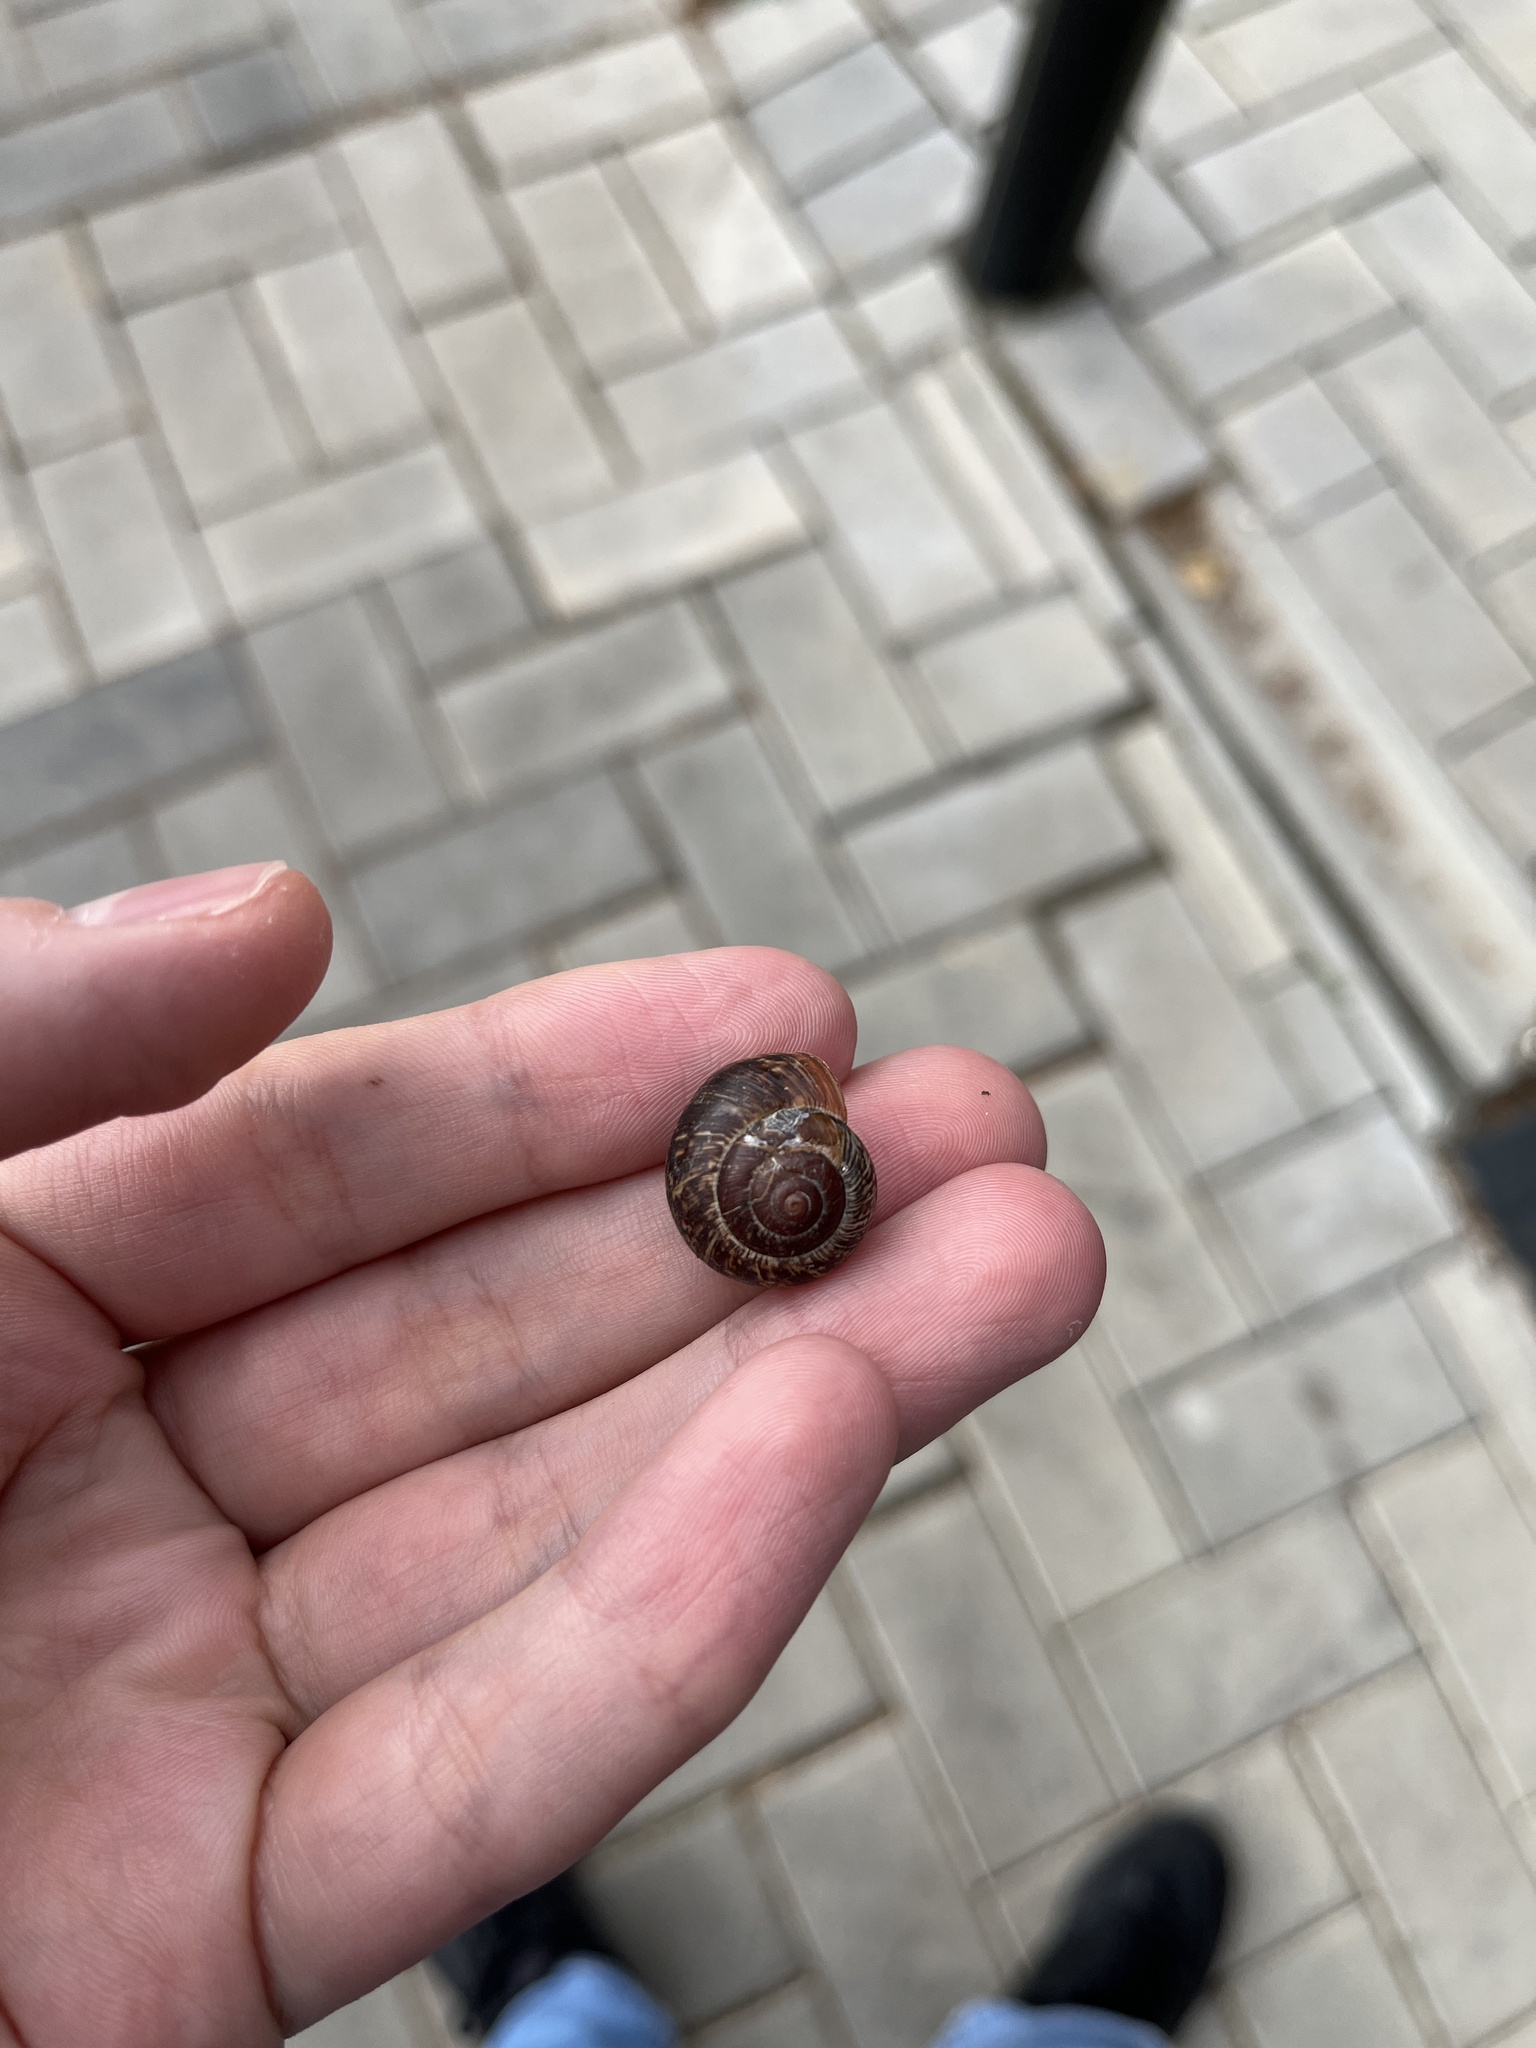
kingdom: Animalia
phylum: Mollusca
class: Gastropoda
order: Stylommatophora
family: Helicidae
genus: Arianta
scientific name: Arianta arbustorum
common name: Copse snail
